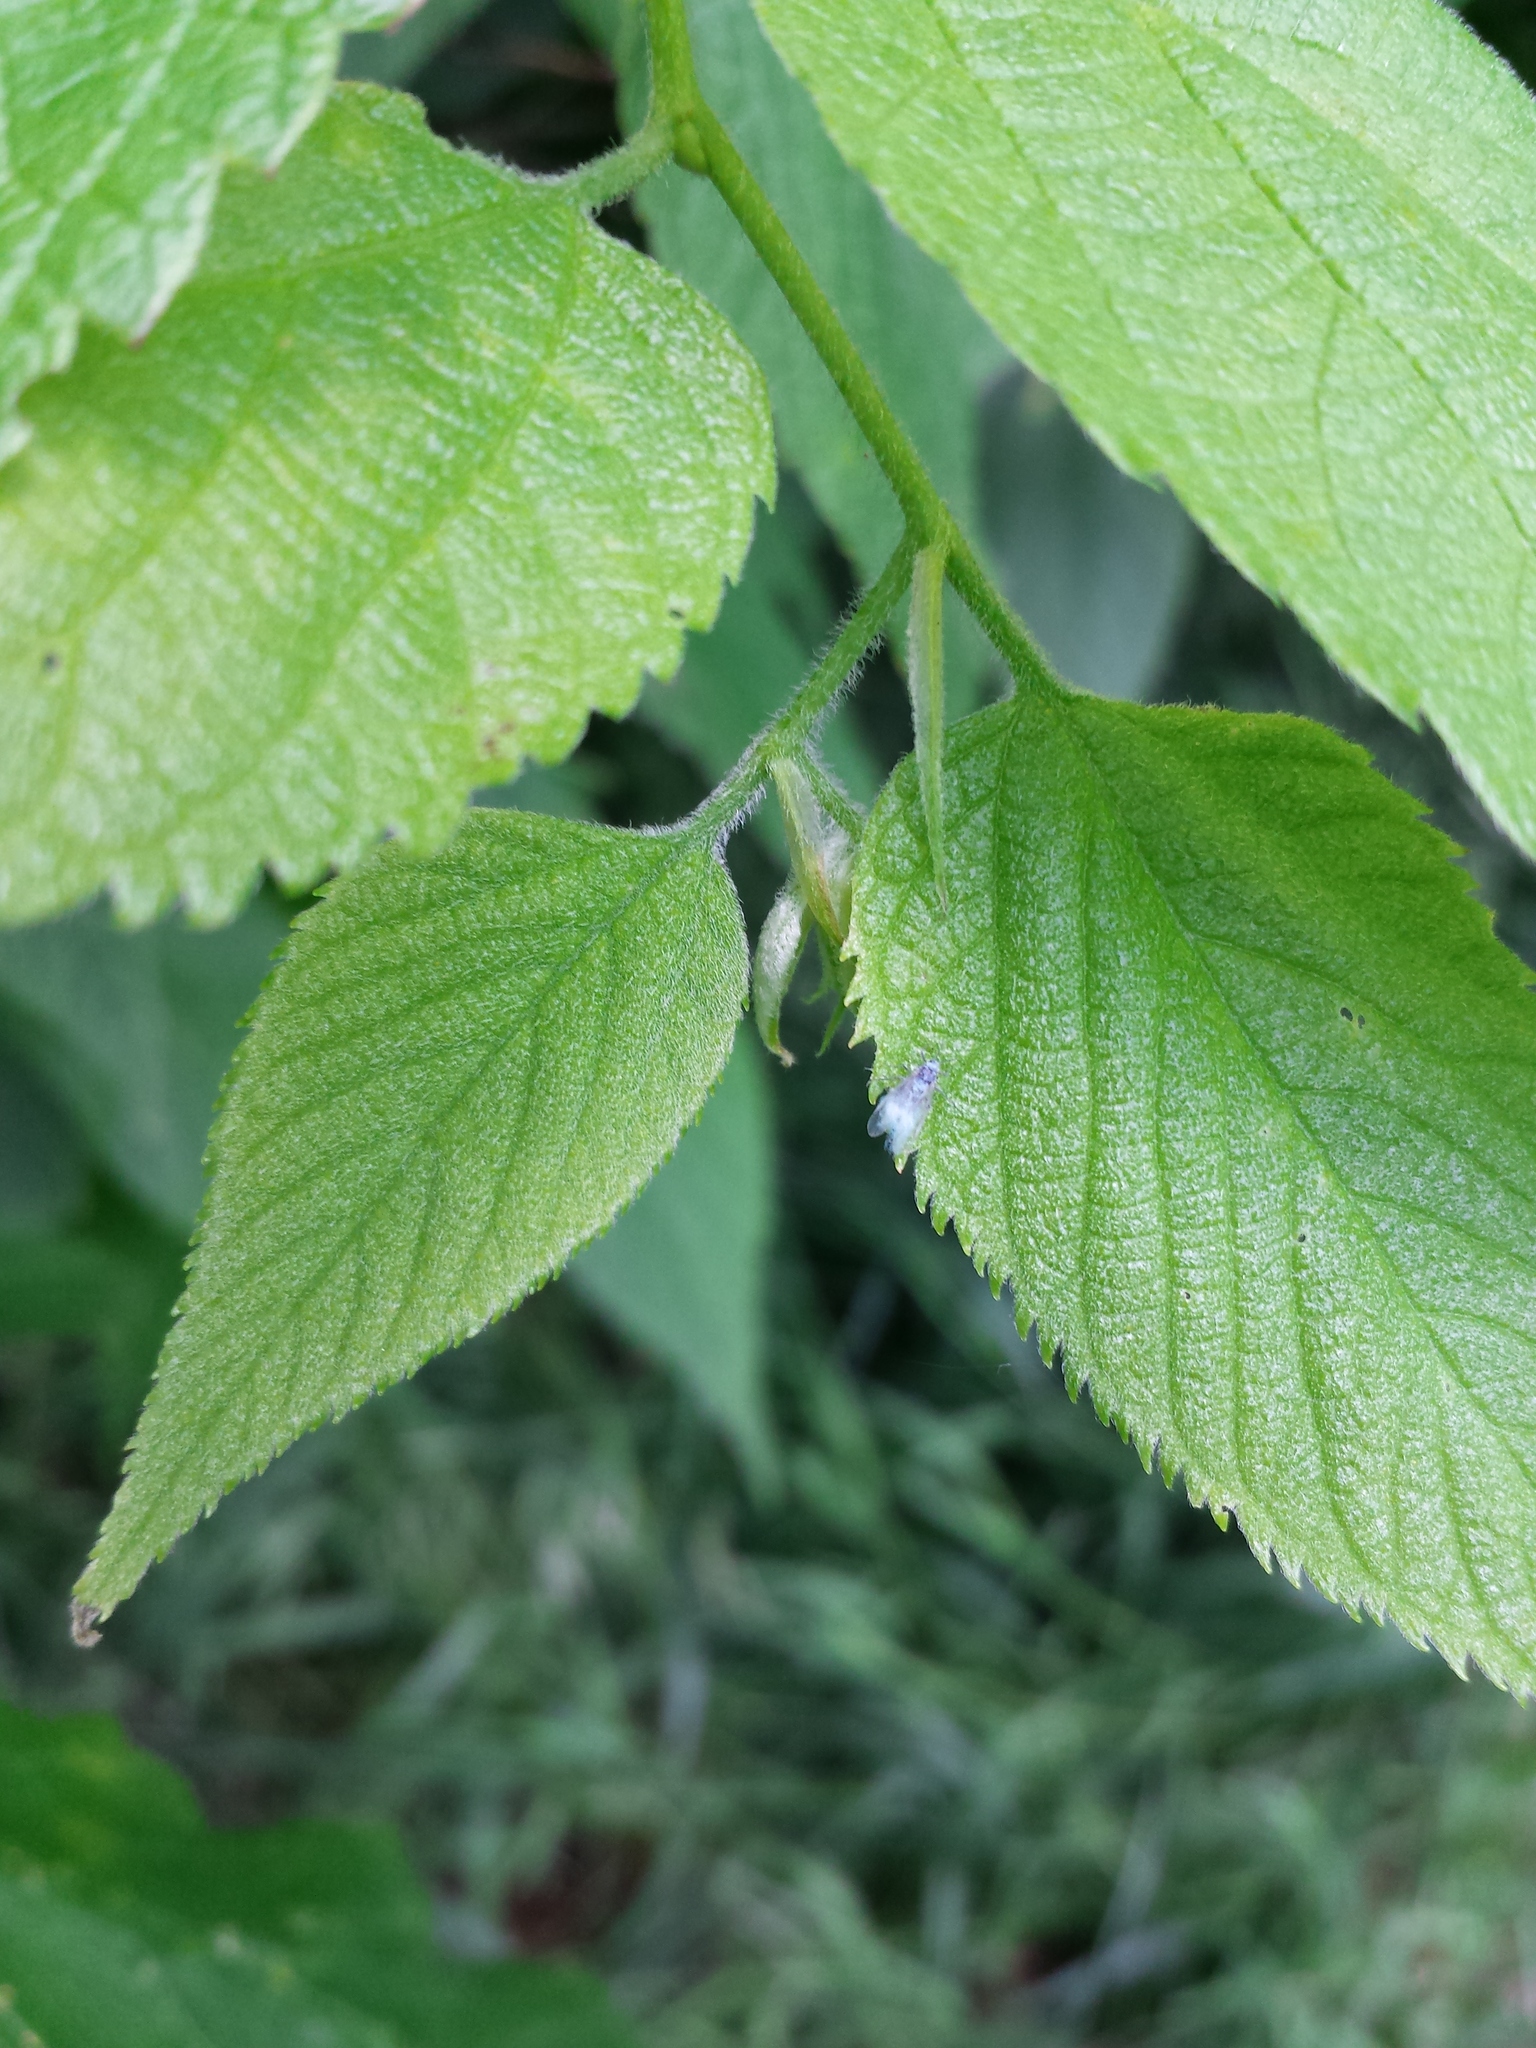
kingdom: Plantae
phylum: Tracheophyta
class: Magnoliopsida
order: Rosales
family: Cannabaceae
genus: Celtis
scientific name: Celtis occidentalis
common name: Common hackberry
